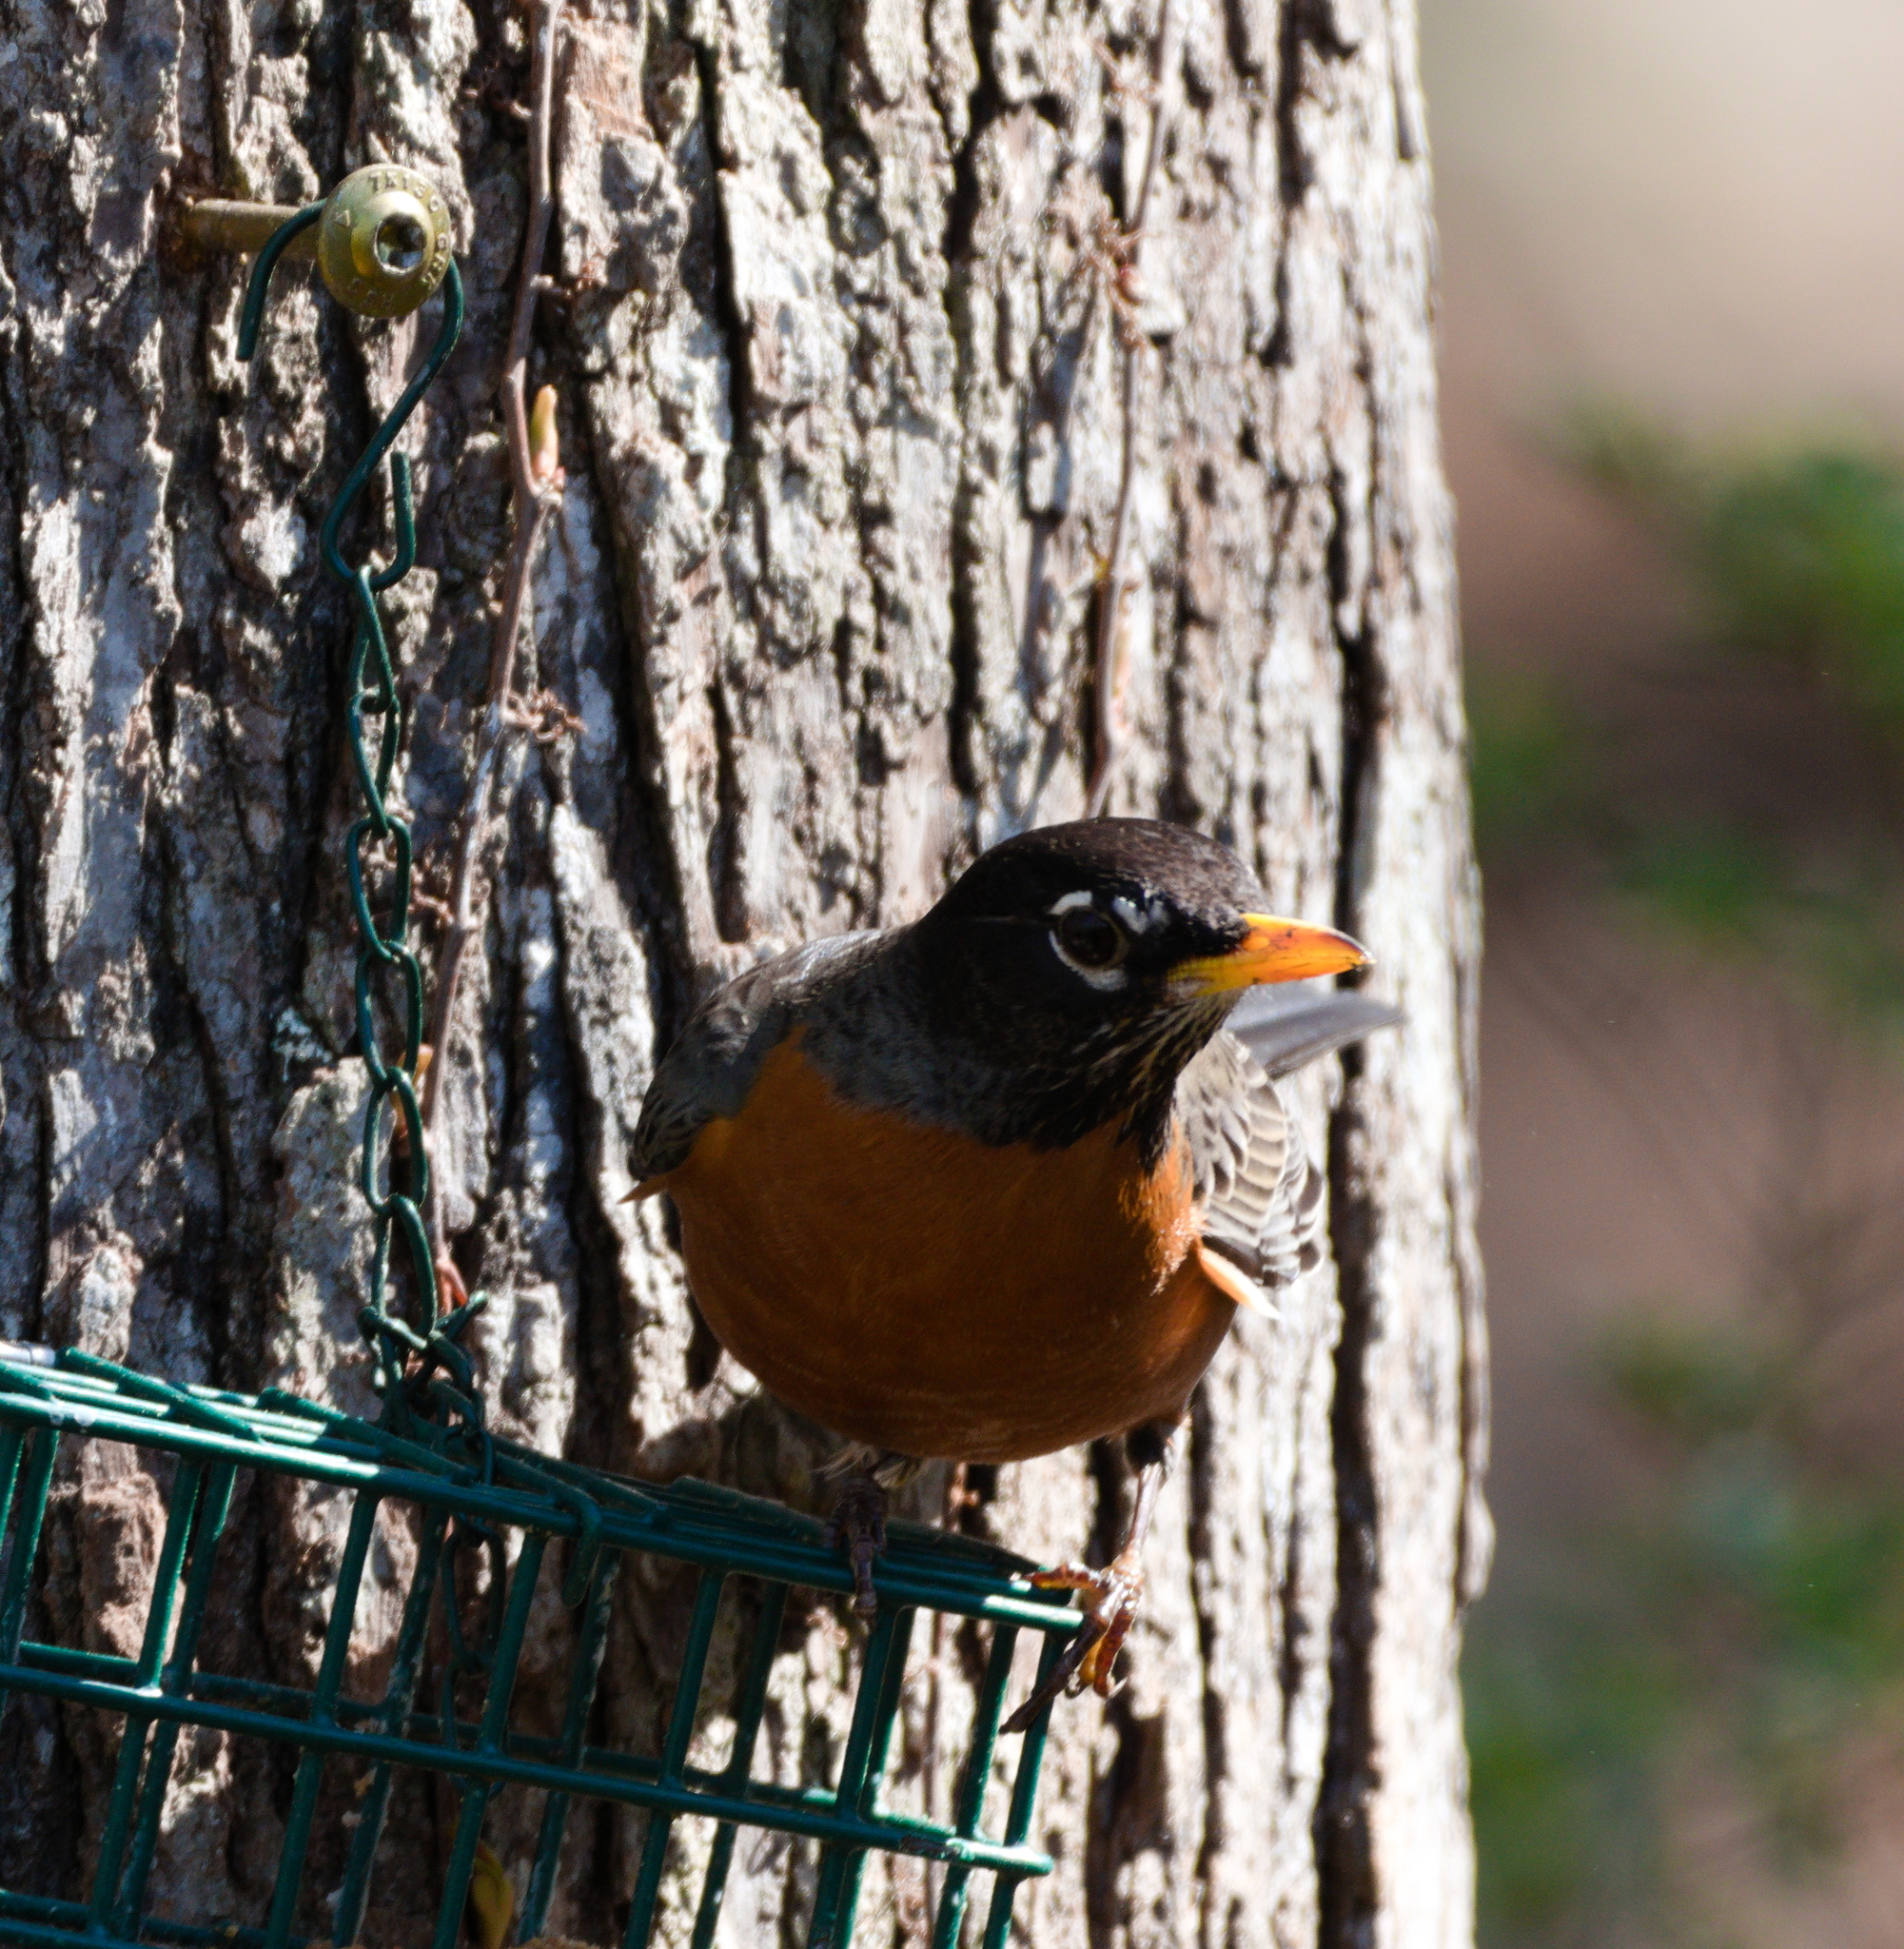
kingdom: Animalia
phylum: Chordata
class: Aves
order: Passeriformes
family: Turdidae
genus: Turdus
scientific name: Turdus migratorius
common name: American robin
